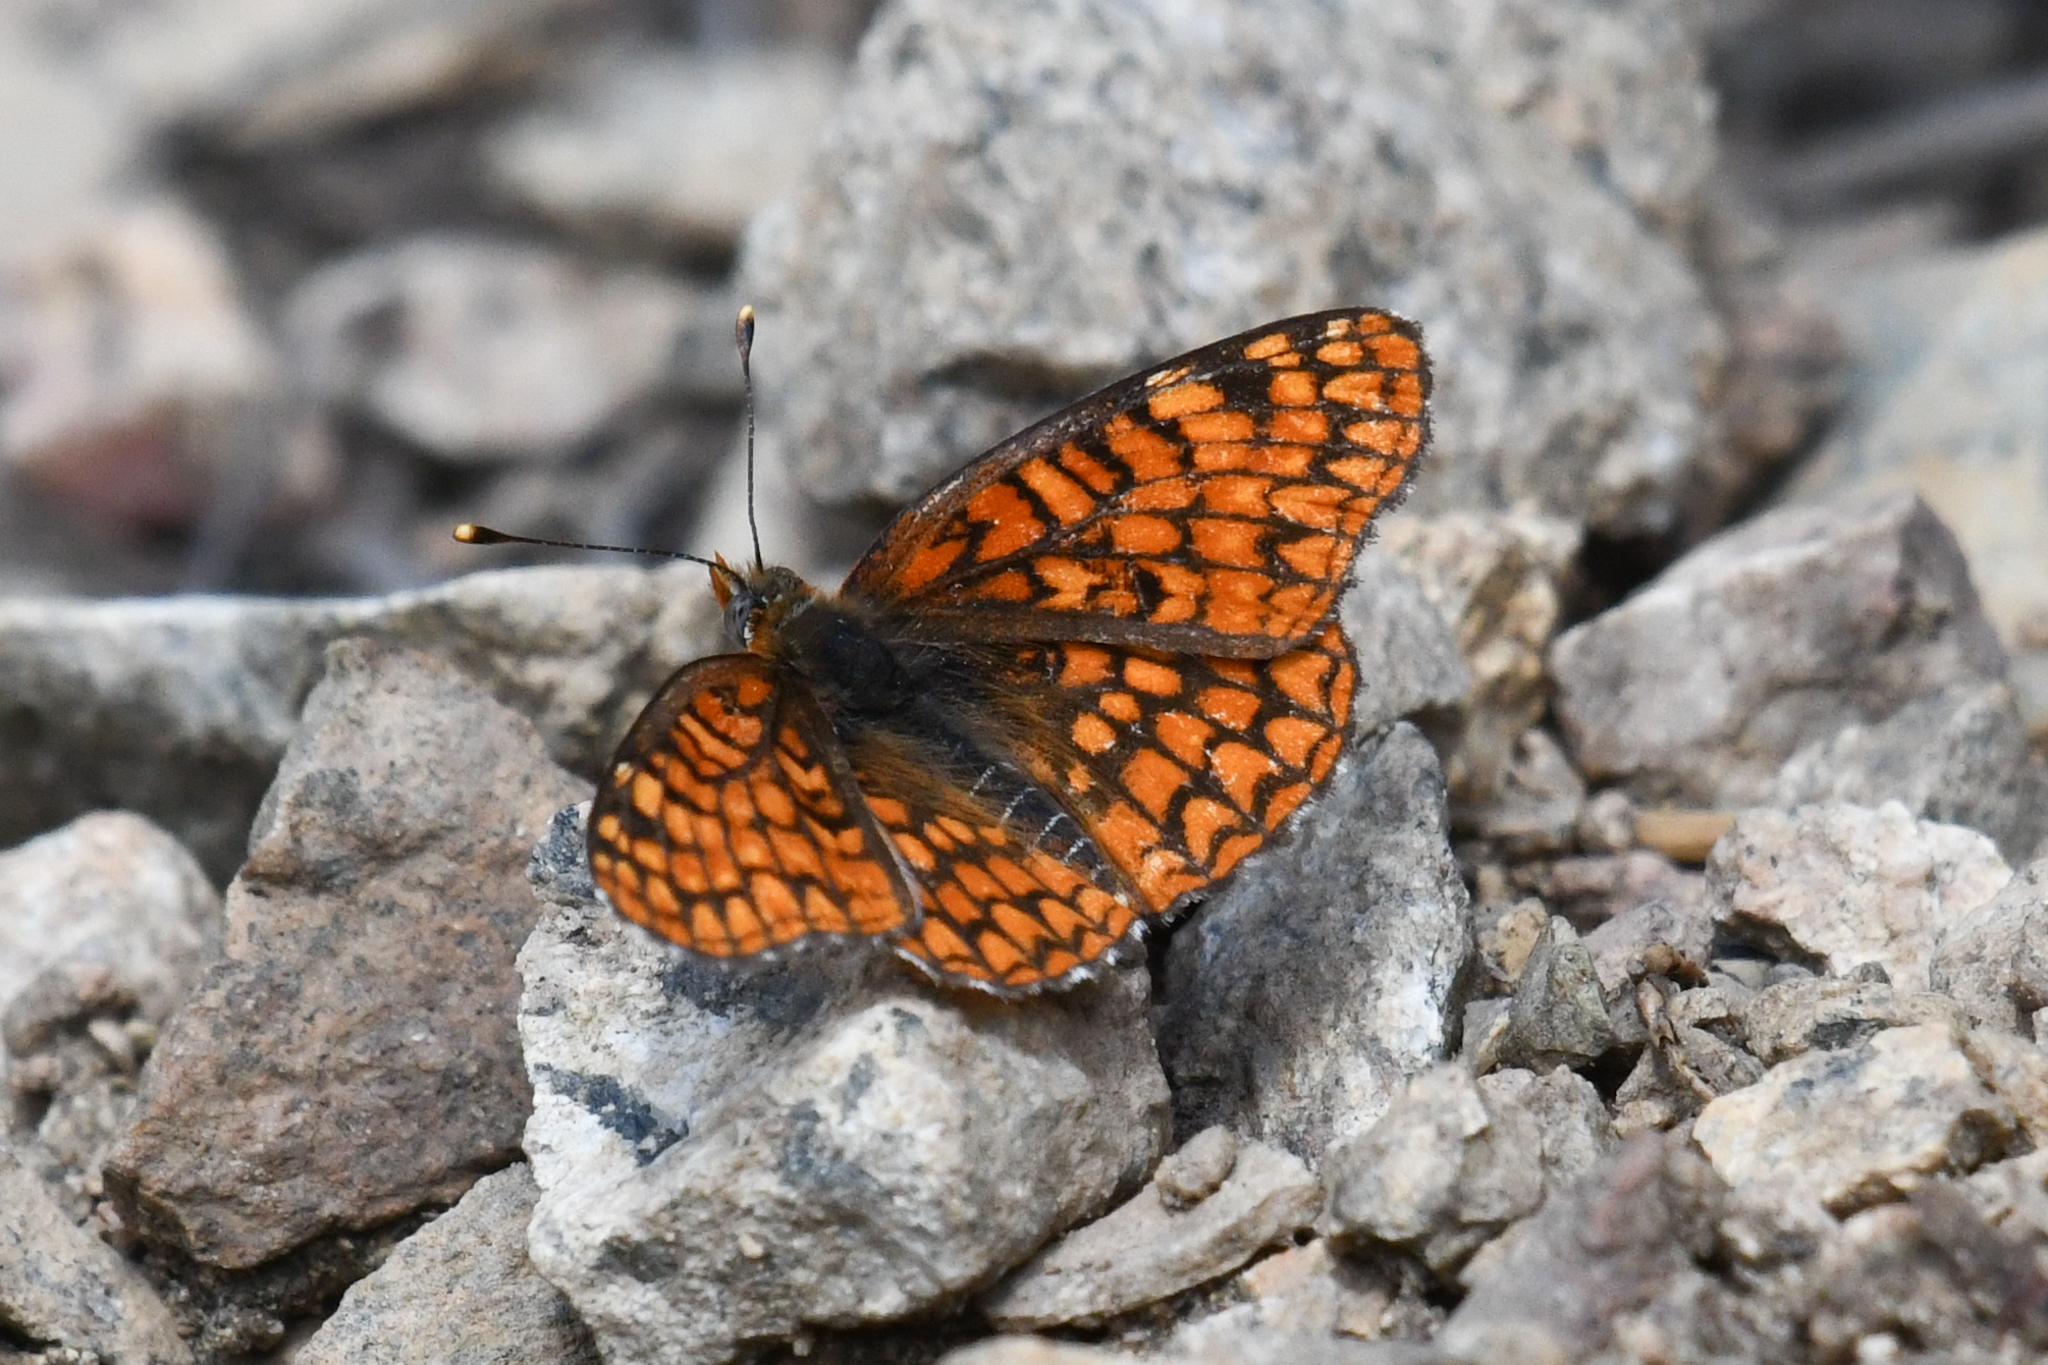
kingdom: Animalia
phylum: Arthropoda
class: Insecta
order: Lepidoptera
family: Nymphalidae
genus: Chlosyne
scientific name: Chlosyne palla
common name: Northern checkerspot
